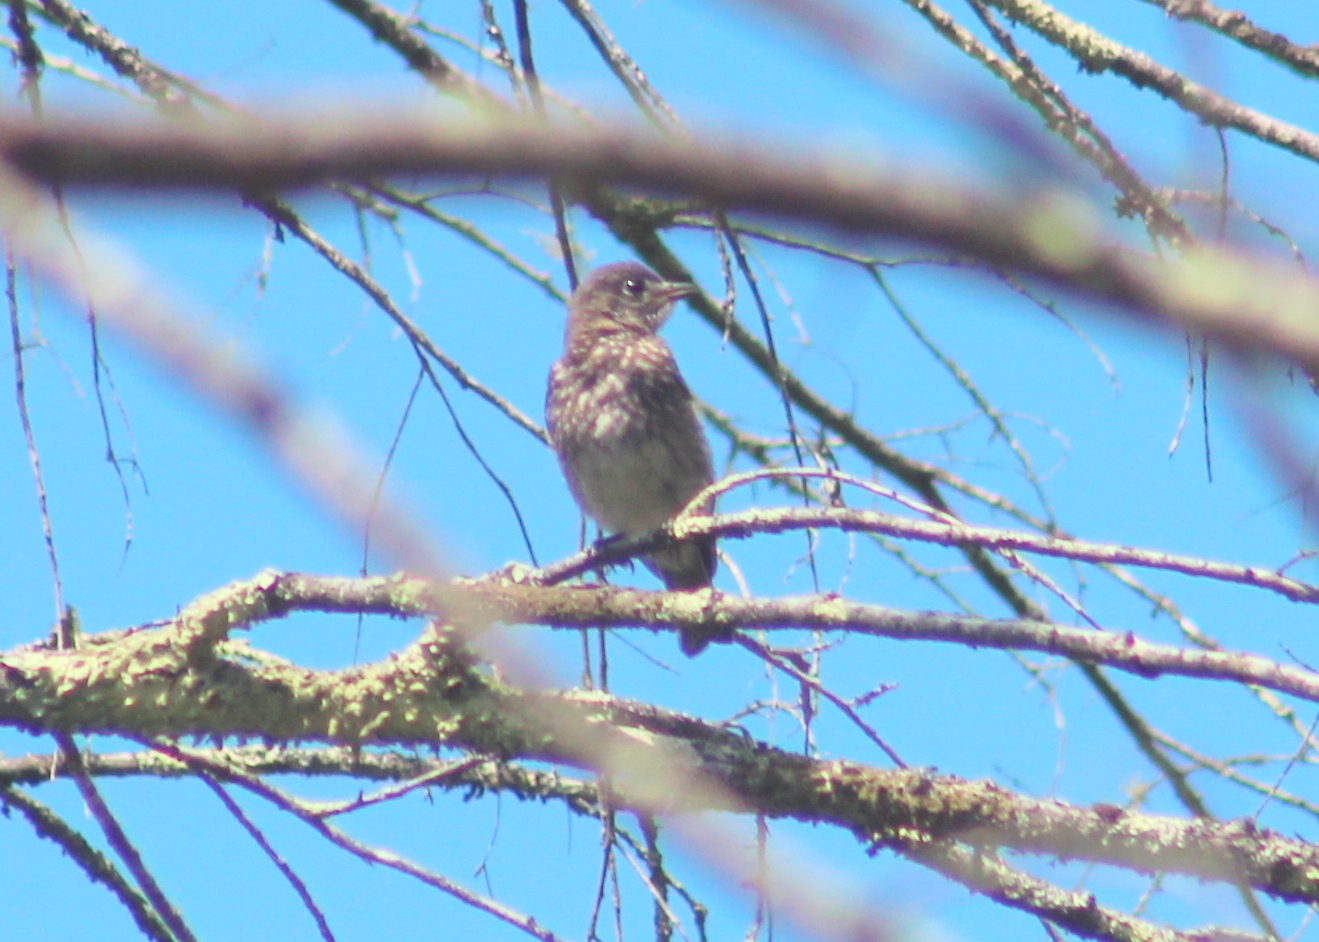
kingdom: Animalia
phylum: Chordata
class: Aves
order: Passeriformes
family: Turdidae
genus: Sialia
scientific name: Sialia sialis
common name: Eastern bluebird
